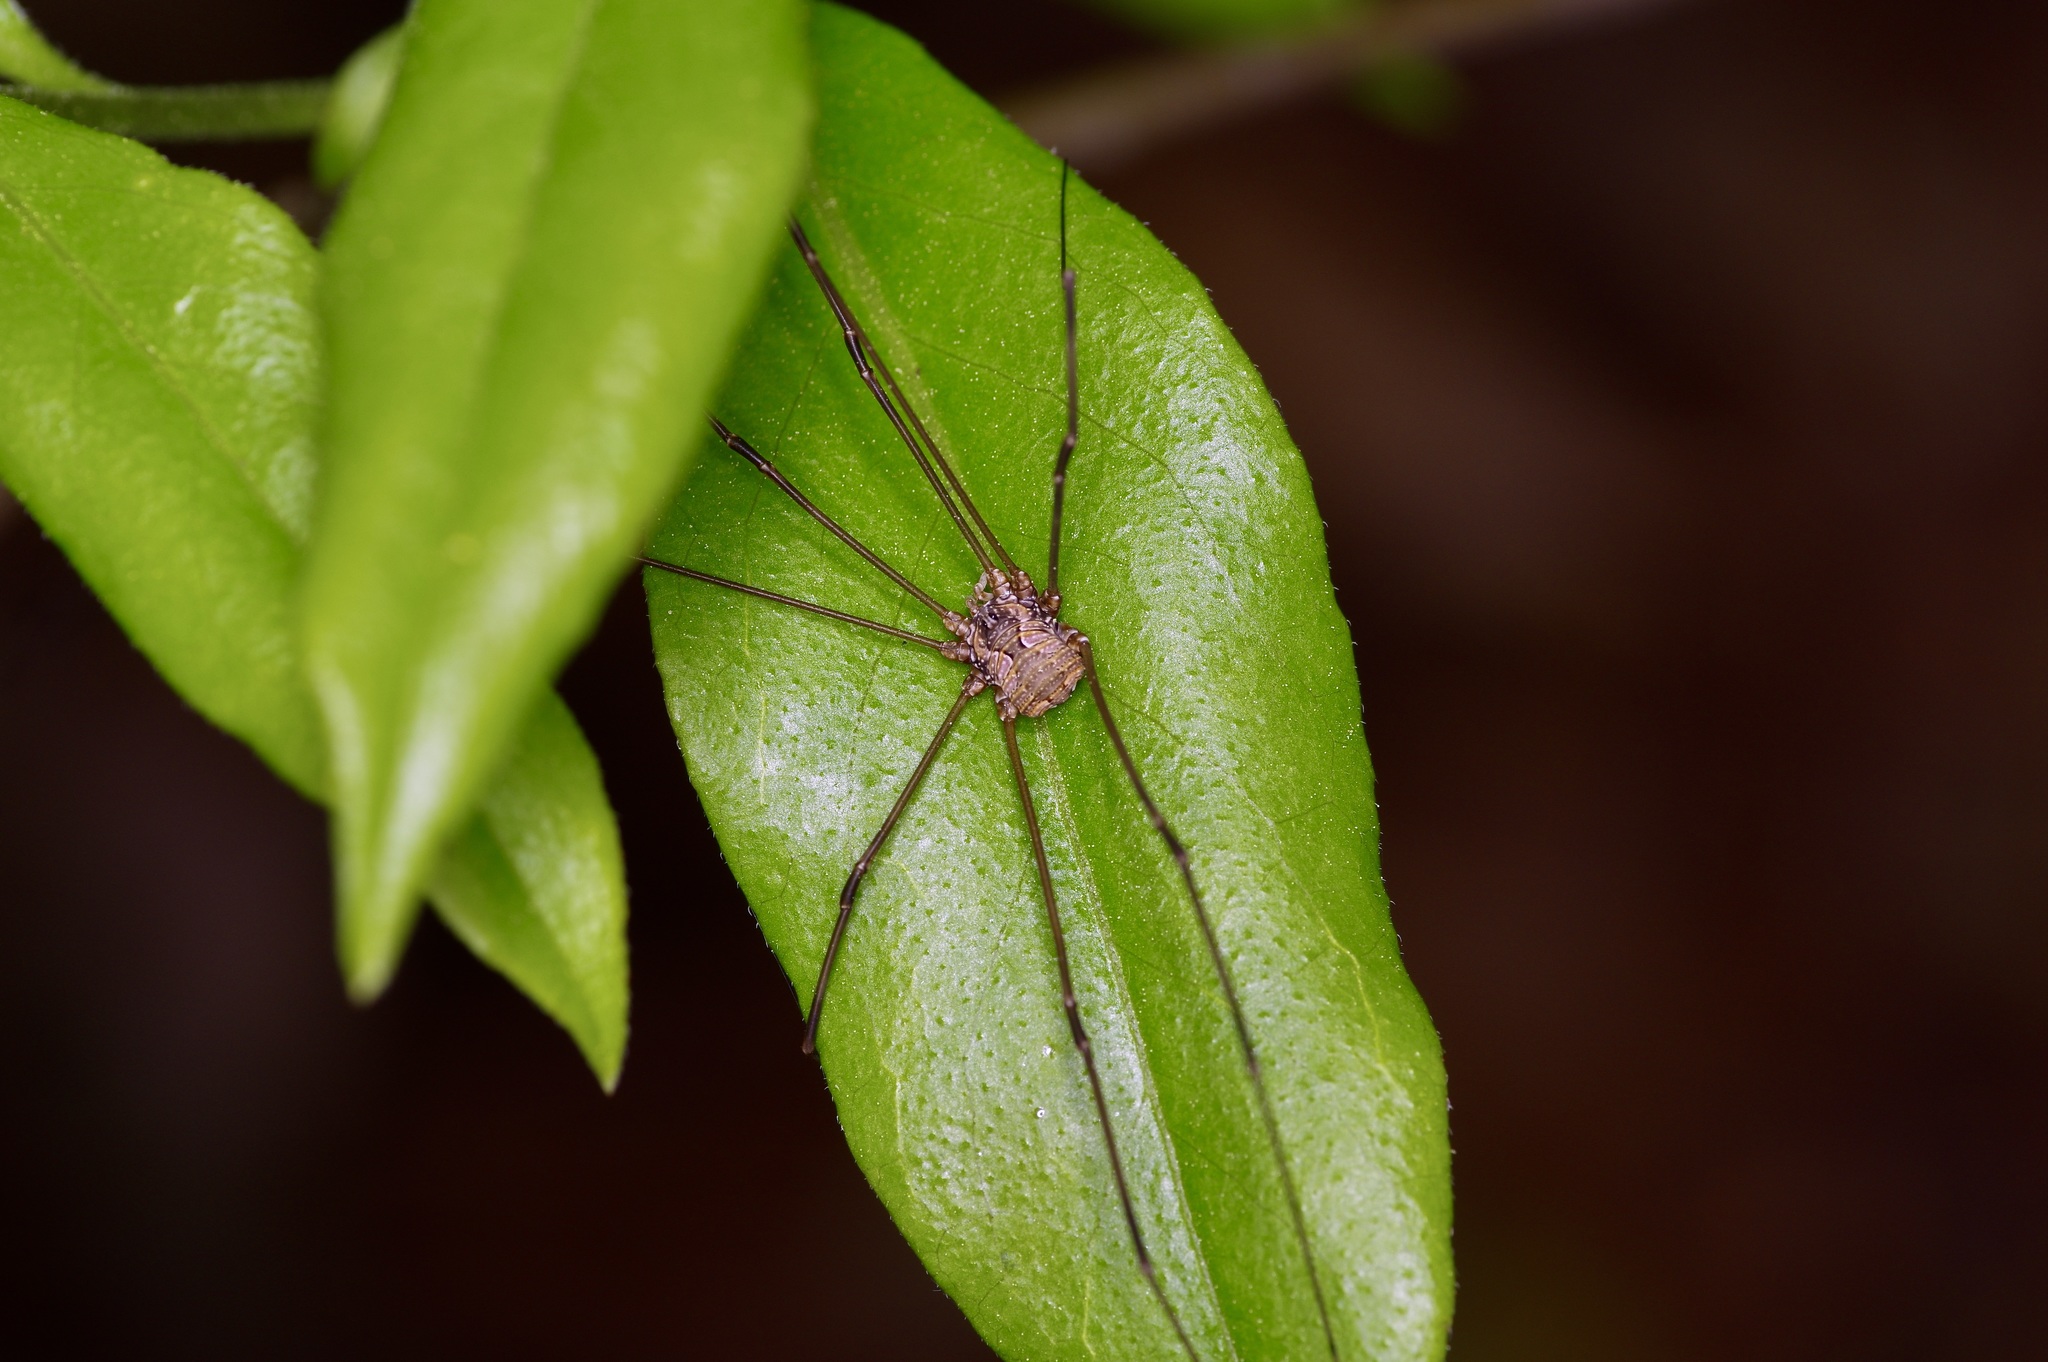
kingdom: Animalia
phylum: Arthropoda
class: Arachnida
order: Opiliones
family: Sclerosomatidae
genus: Leiobunum
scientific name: Leiobunum flavum
